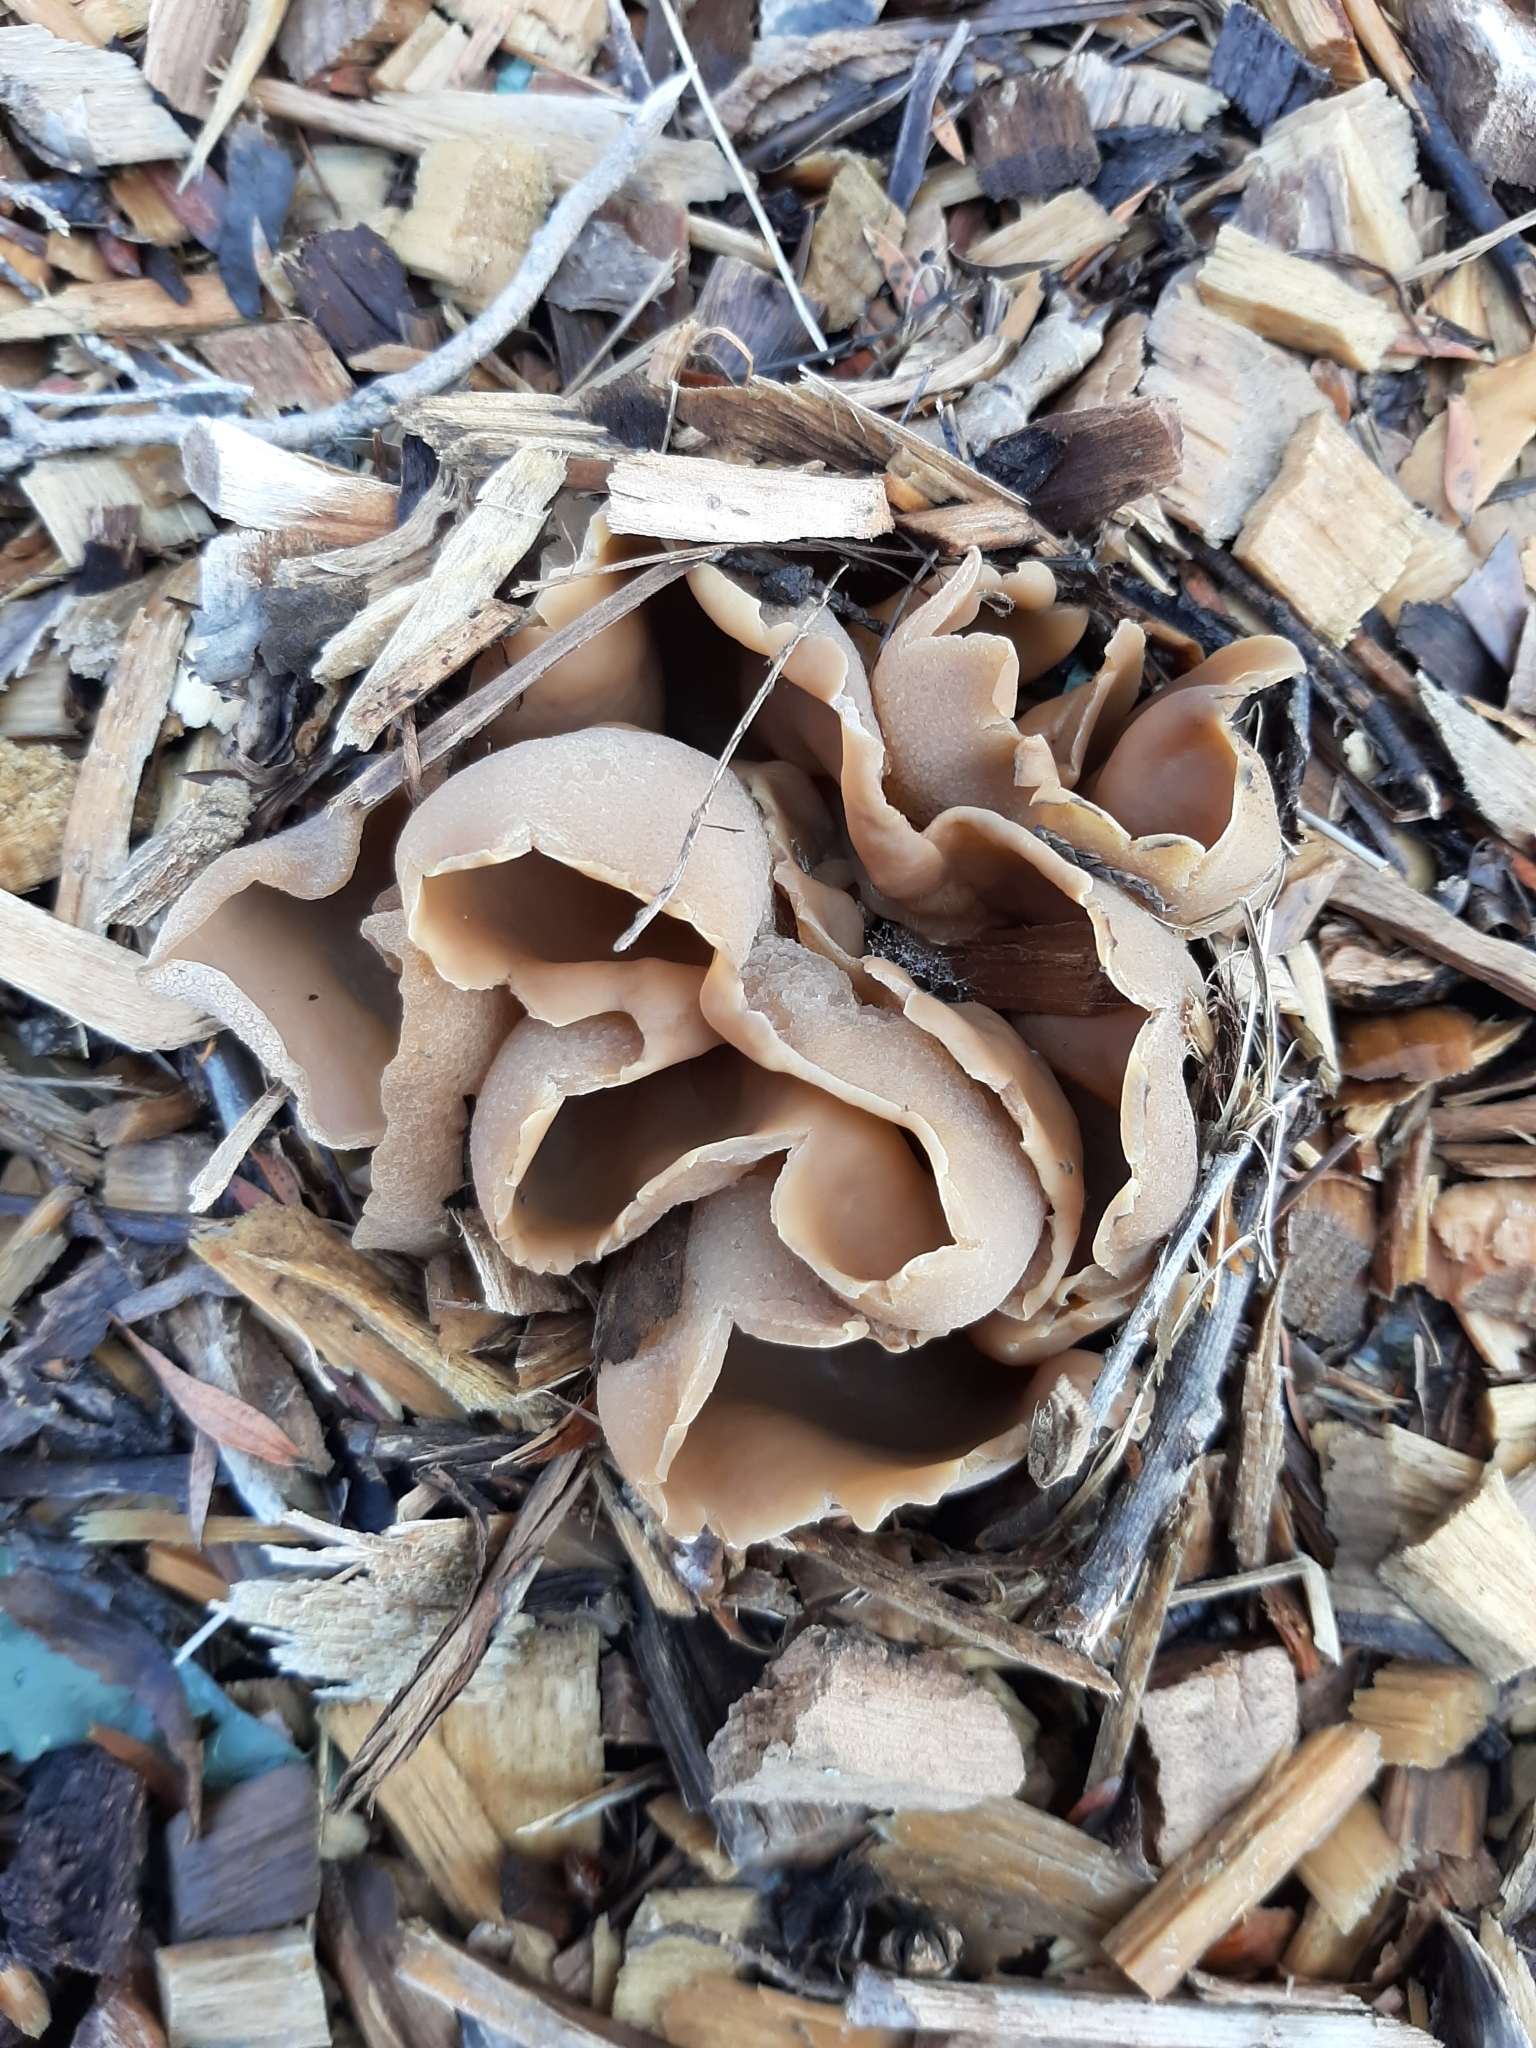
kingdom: Fungi
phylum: Ascomycota
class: Pezizomycetes
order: Pezizales
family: Pezizaceae
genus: Peziza
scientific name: Peziza varia
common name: Layered cup
